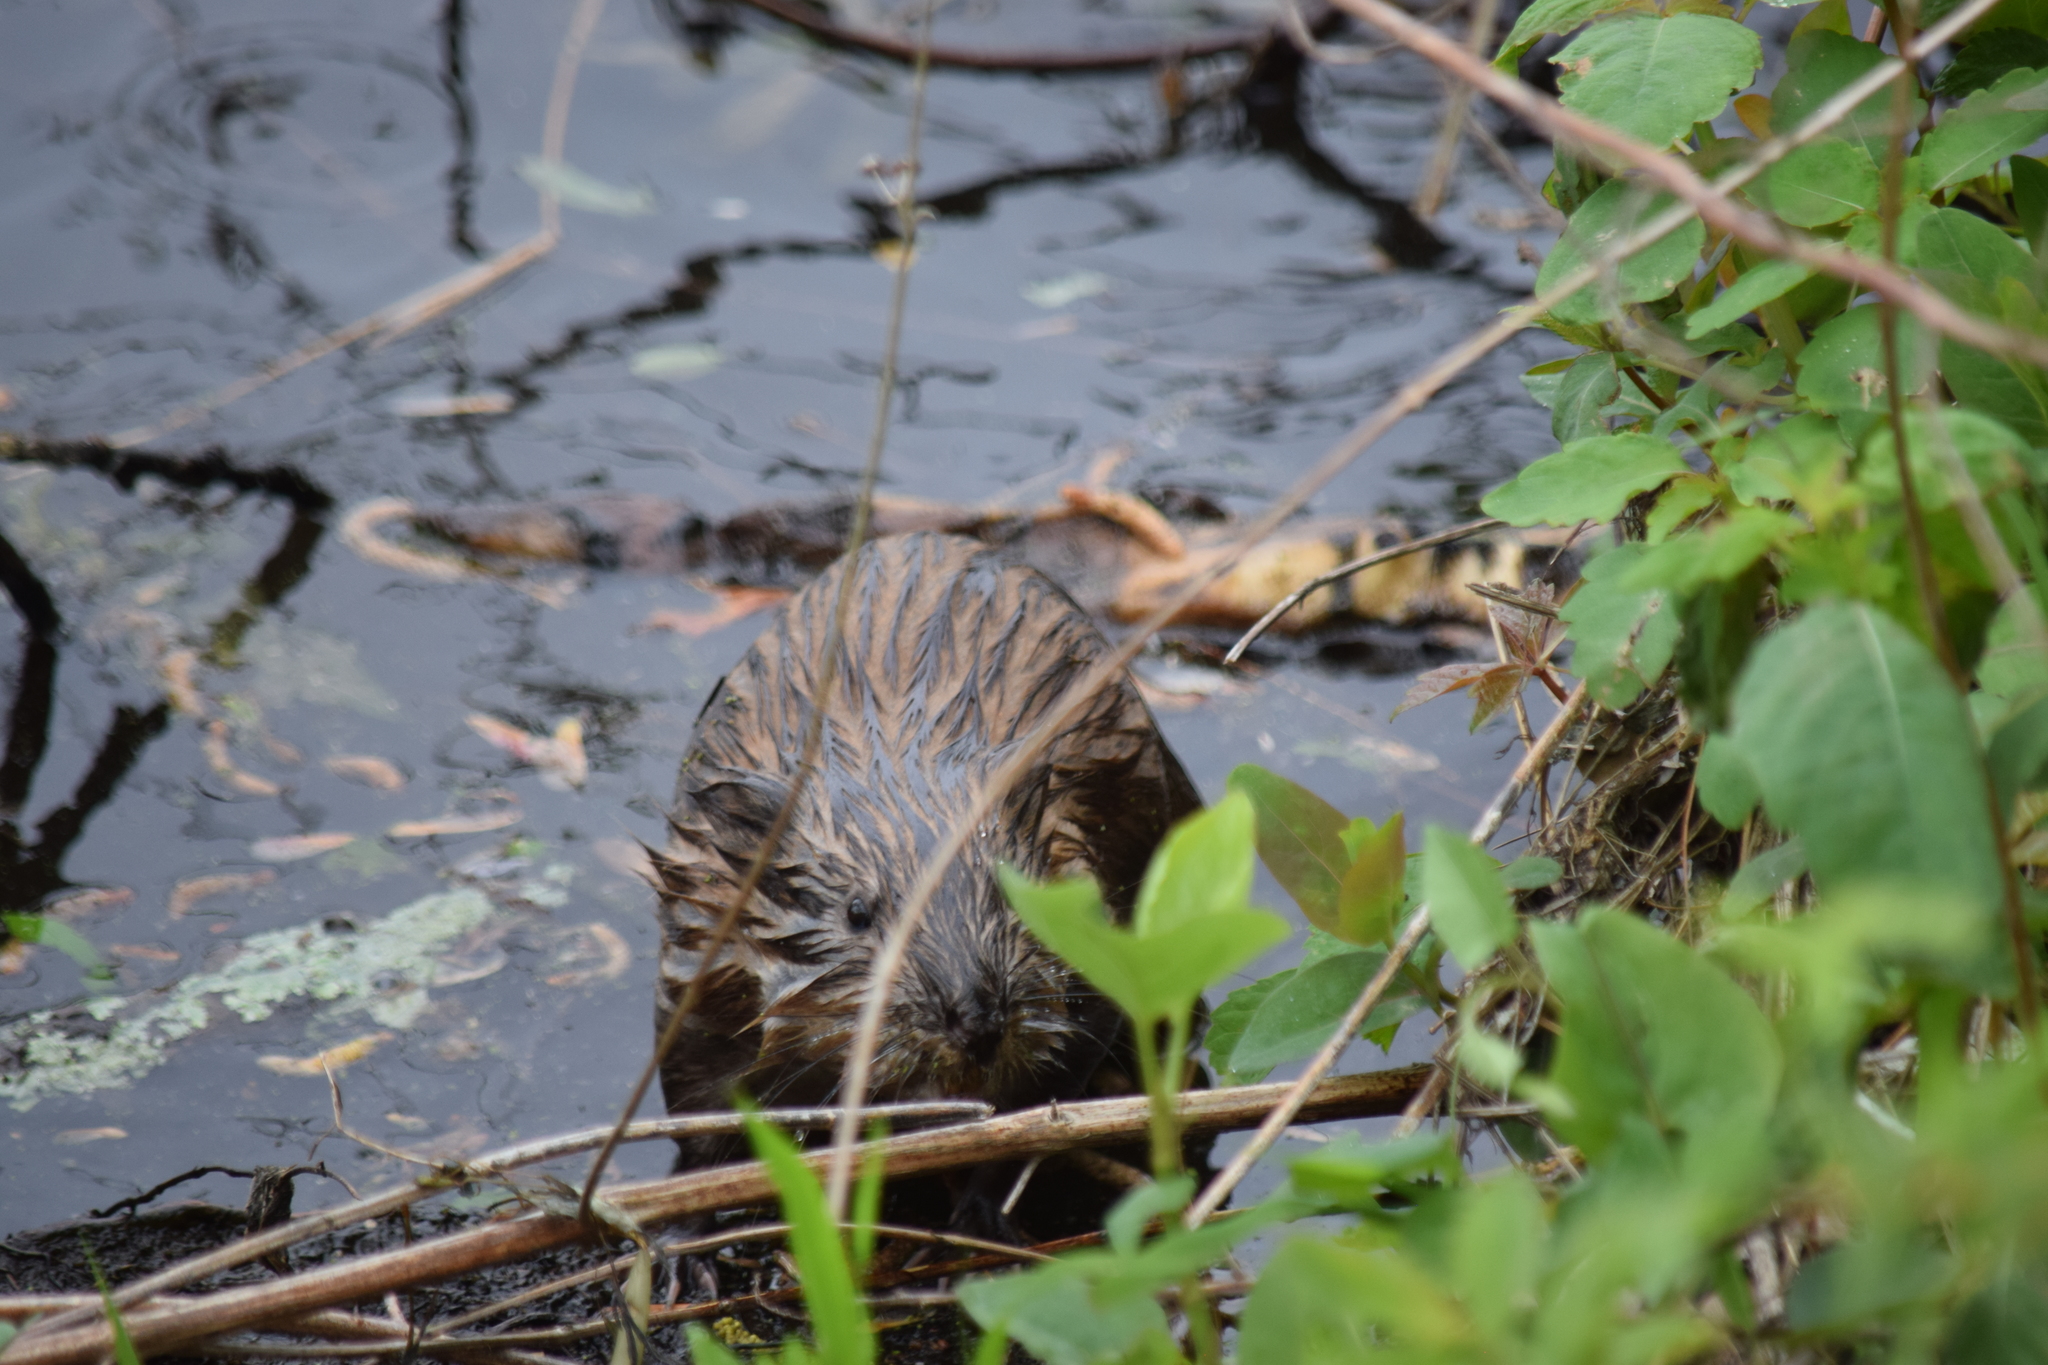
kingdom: Animalia
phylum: Chordata
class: Mammalia
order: Rodentia
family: Cricetidae
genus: Ondatra
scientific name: Ondatra zibethicus
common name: Muskrat
